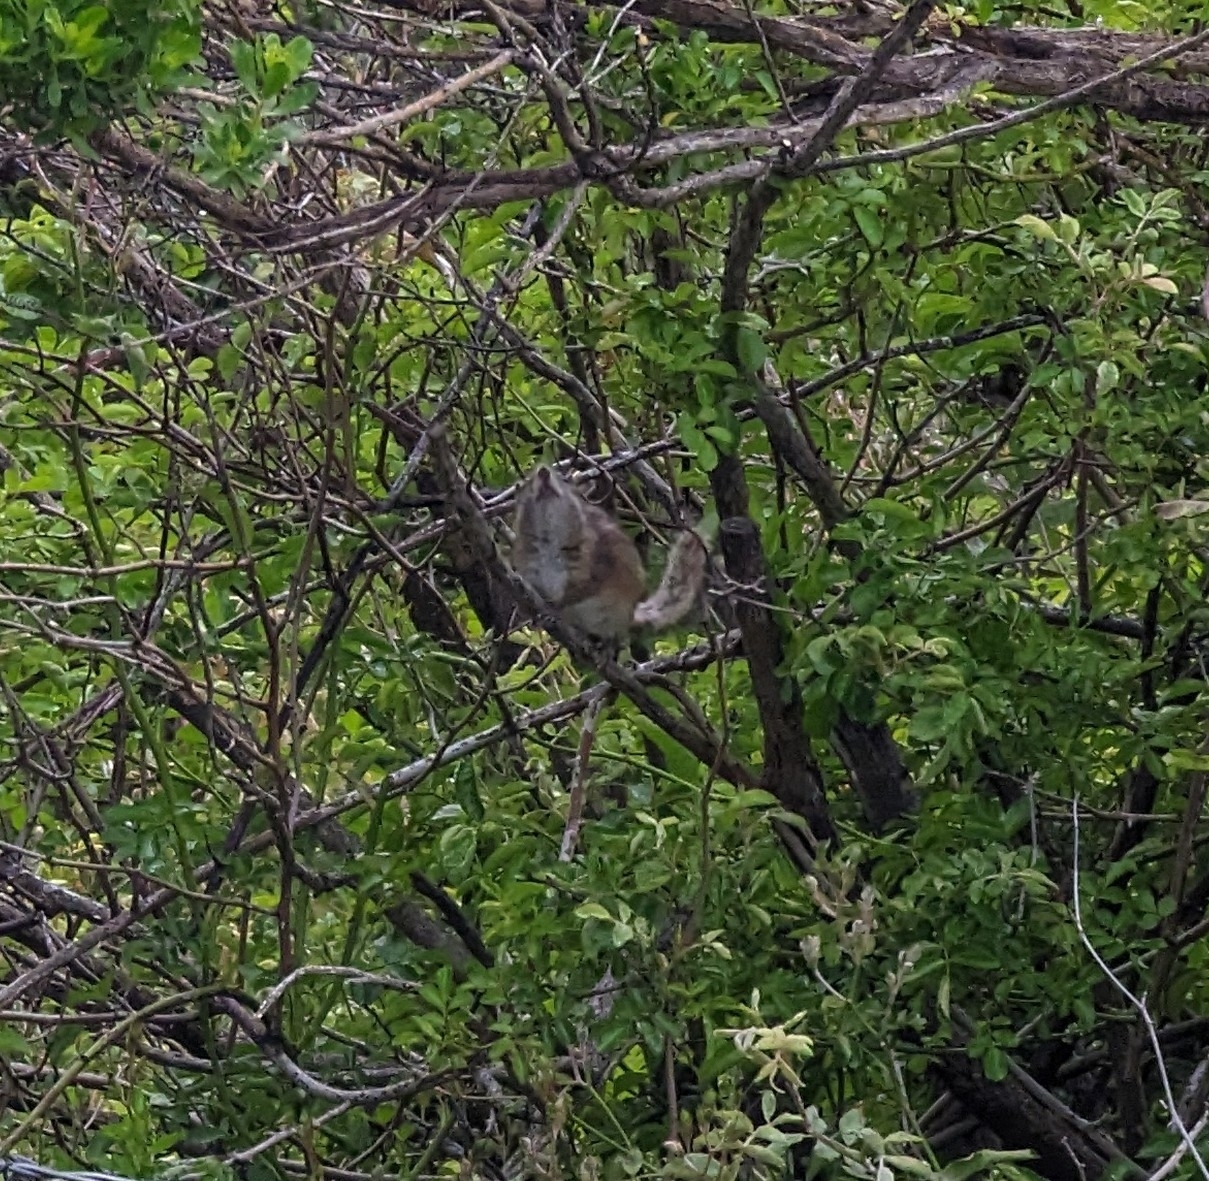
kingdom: Animalia
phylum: Chordata
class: Mammalia
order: Rodentia
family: Sciuridae
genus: Tamias
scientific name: Tamias merriami
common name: Merriam's chipmunk
